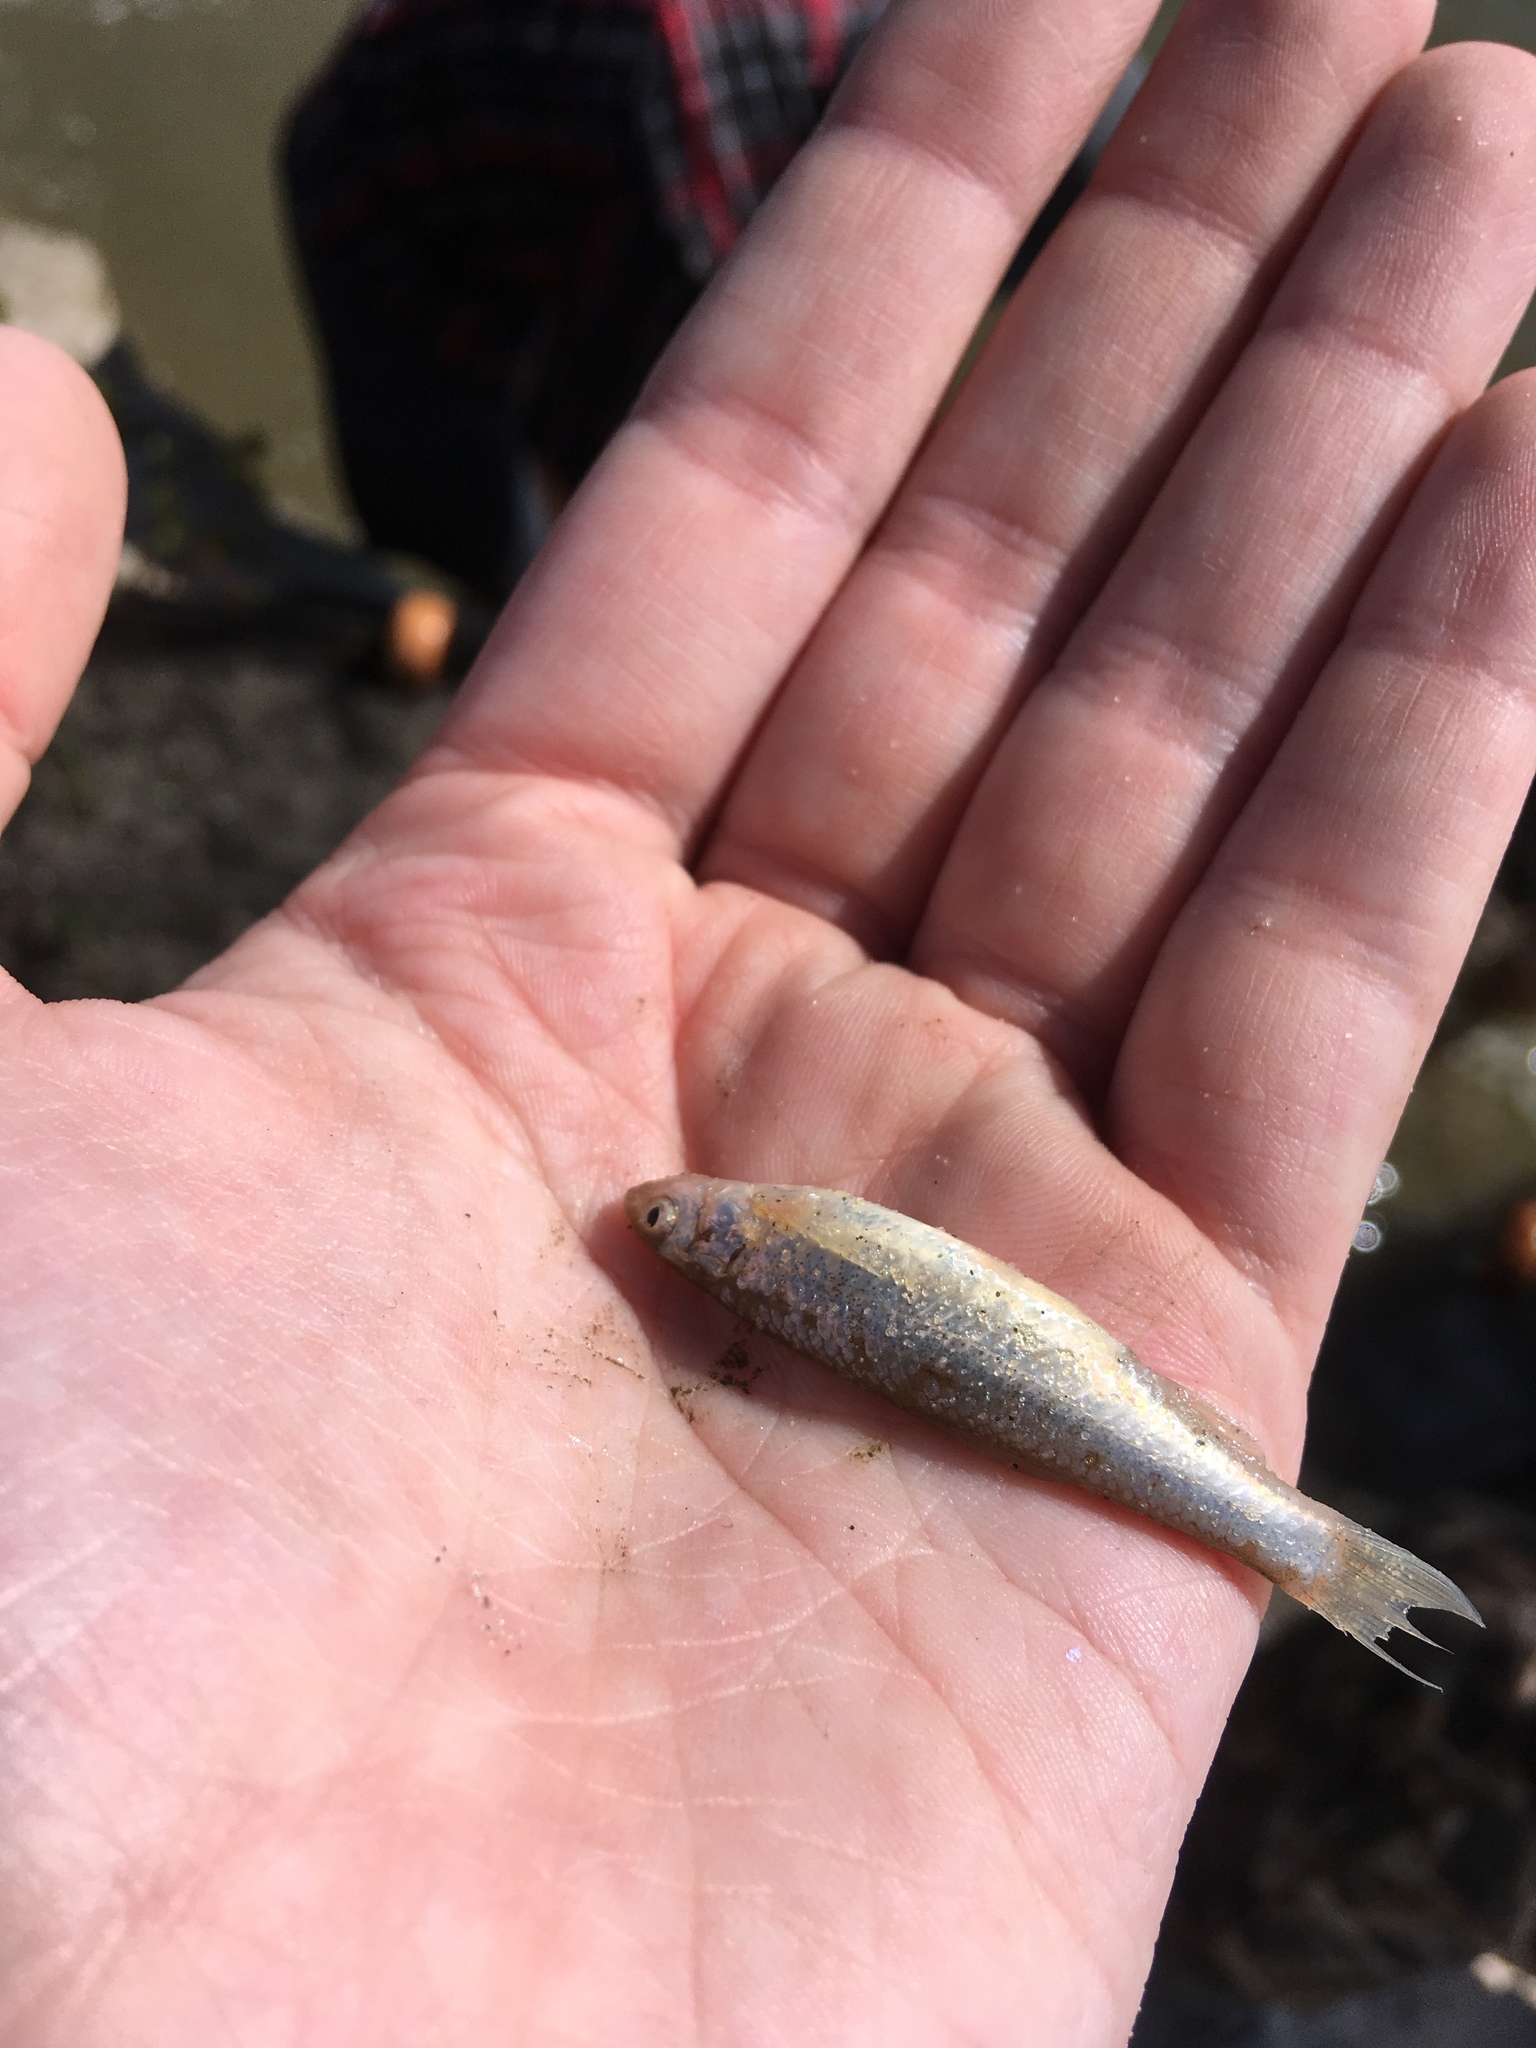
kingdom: Animalia
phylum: Chordata
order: Cypriniformes
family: Cyprinidae
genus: Pimephales
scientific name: Pimephales promelas
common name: Fathead minnow
